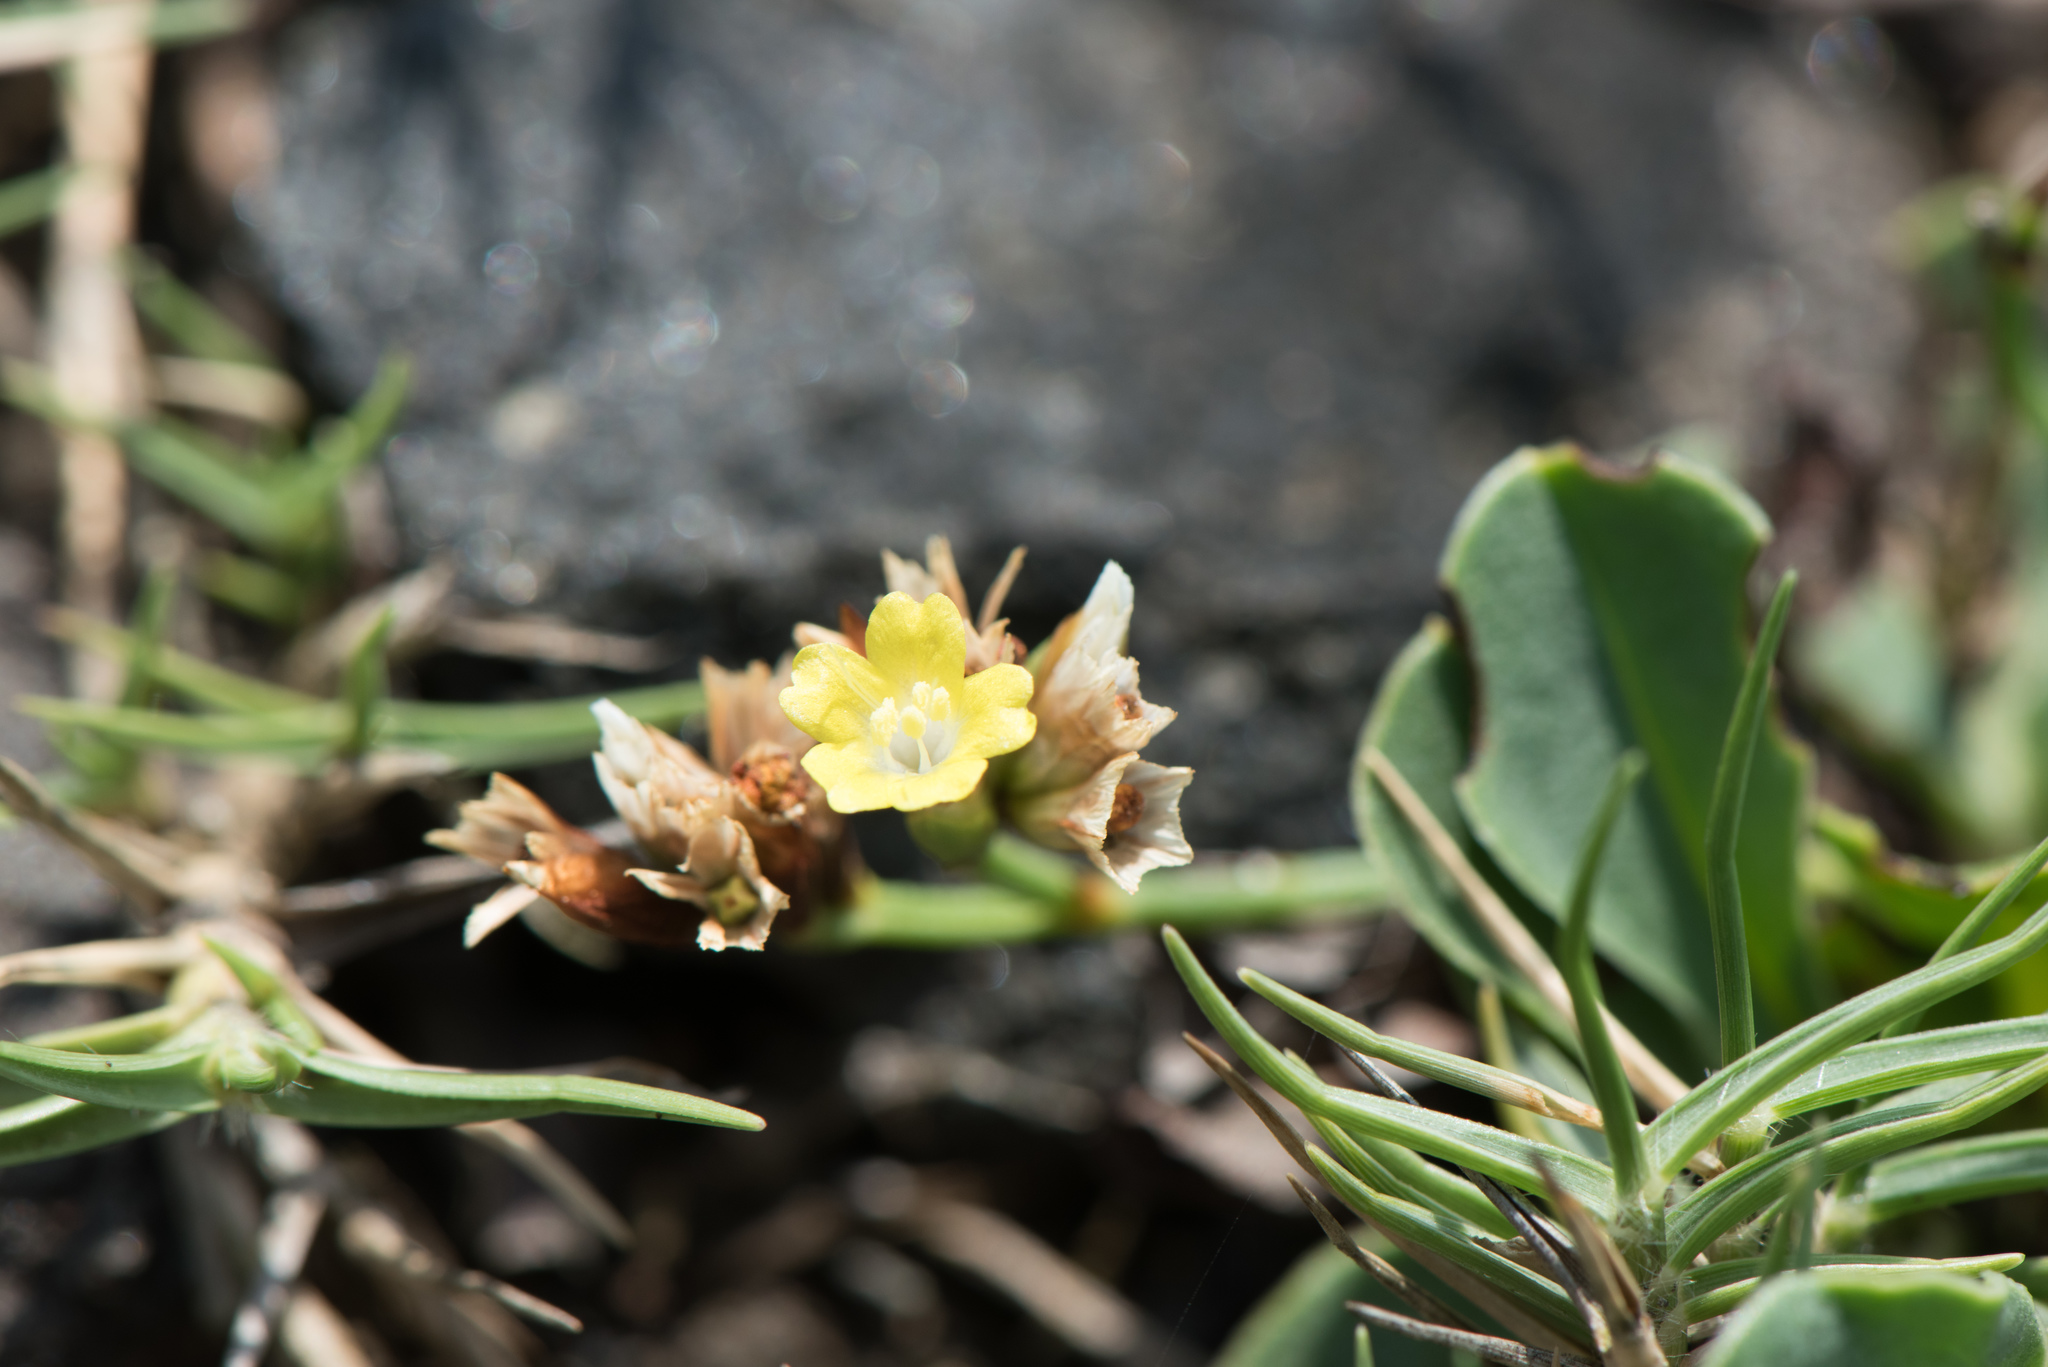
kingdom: Plantae
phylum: Tracheophyta
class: Magnoliopsida
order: Caryophyllales
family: Plumbaginaceae
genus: Limonium
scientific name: Limonium sinense
